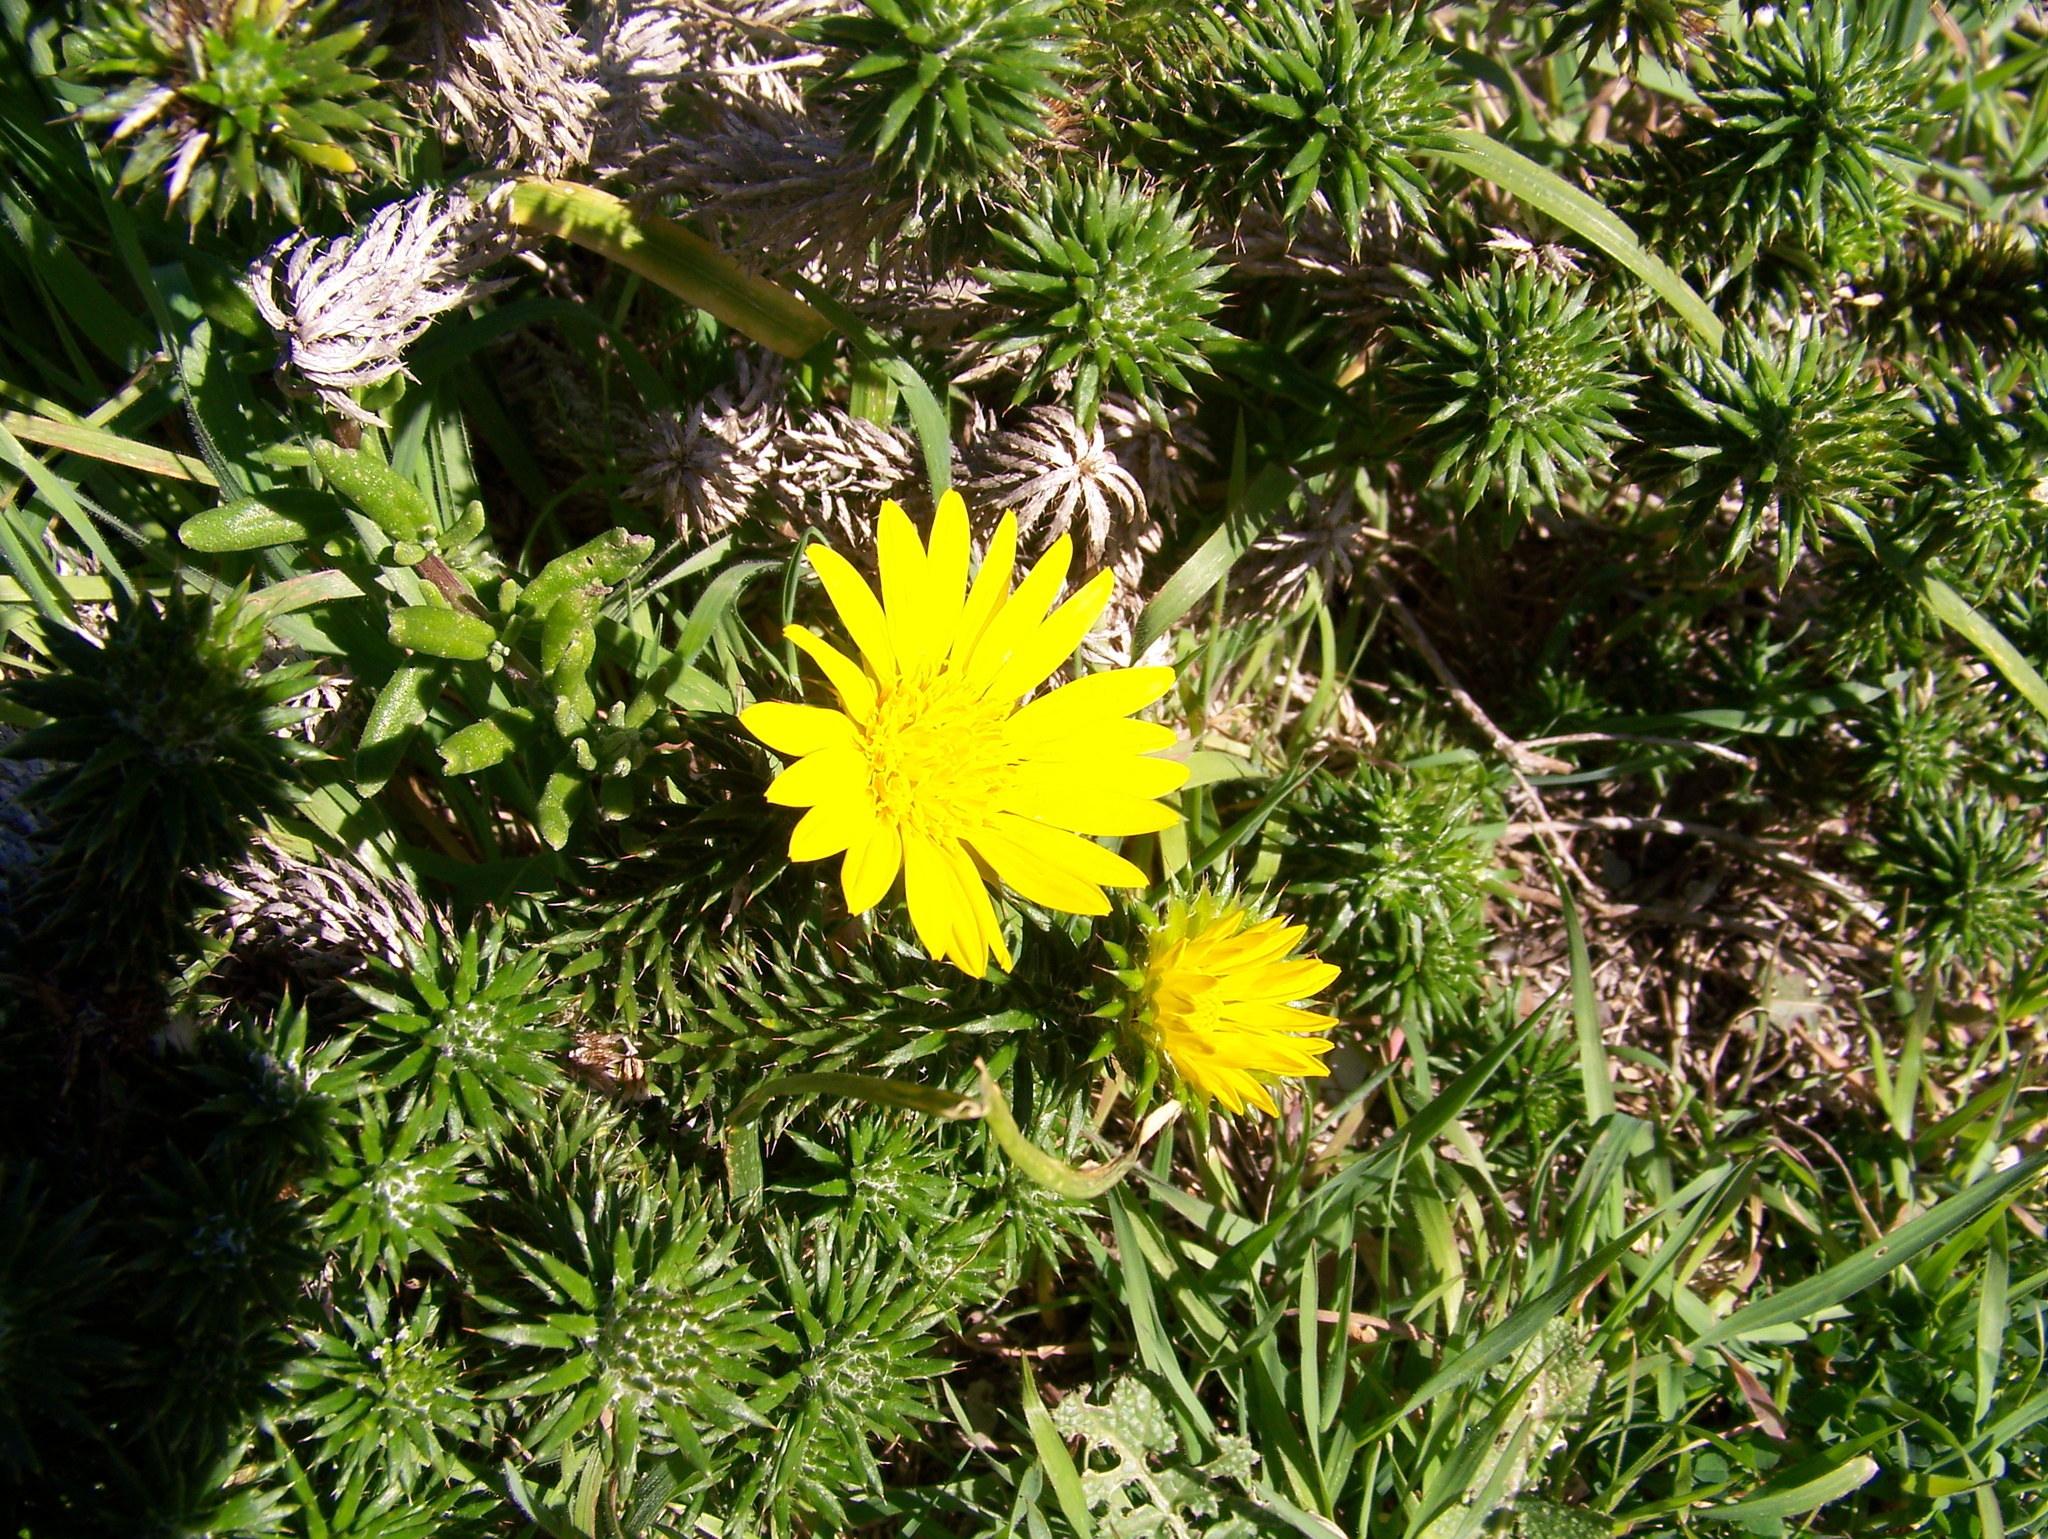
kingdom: Plantae
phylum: Tracheophyta
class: Magnoliopsida
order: Asterales
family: Asteraceae
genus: Cullumia
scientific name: Cullumia squarrosa
